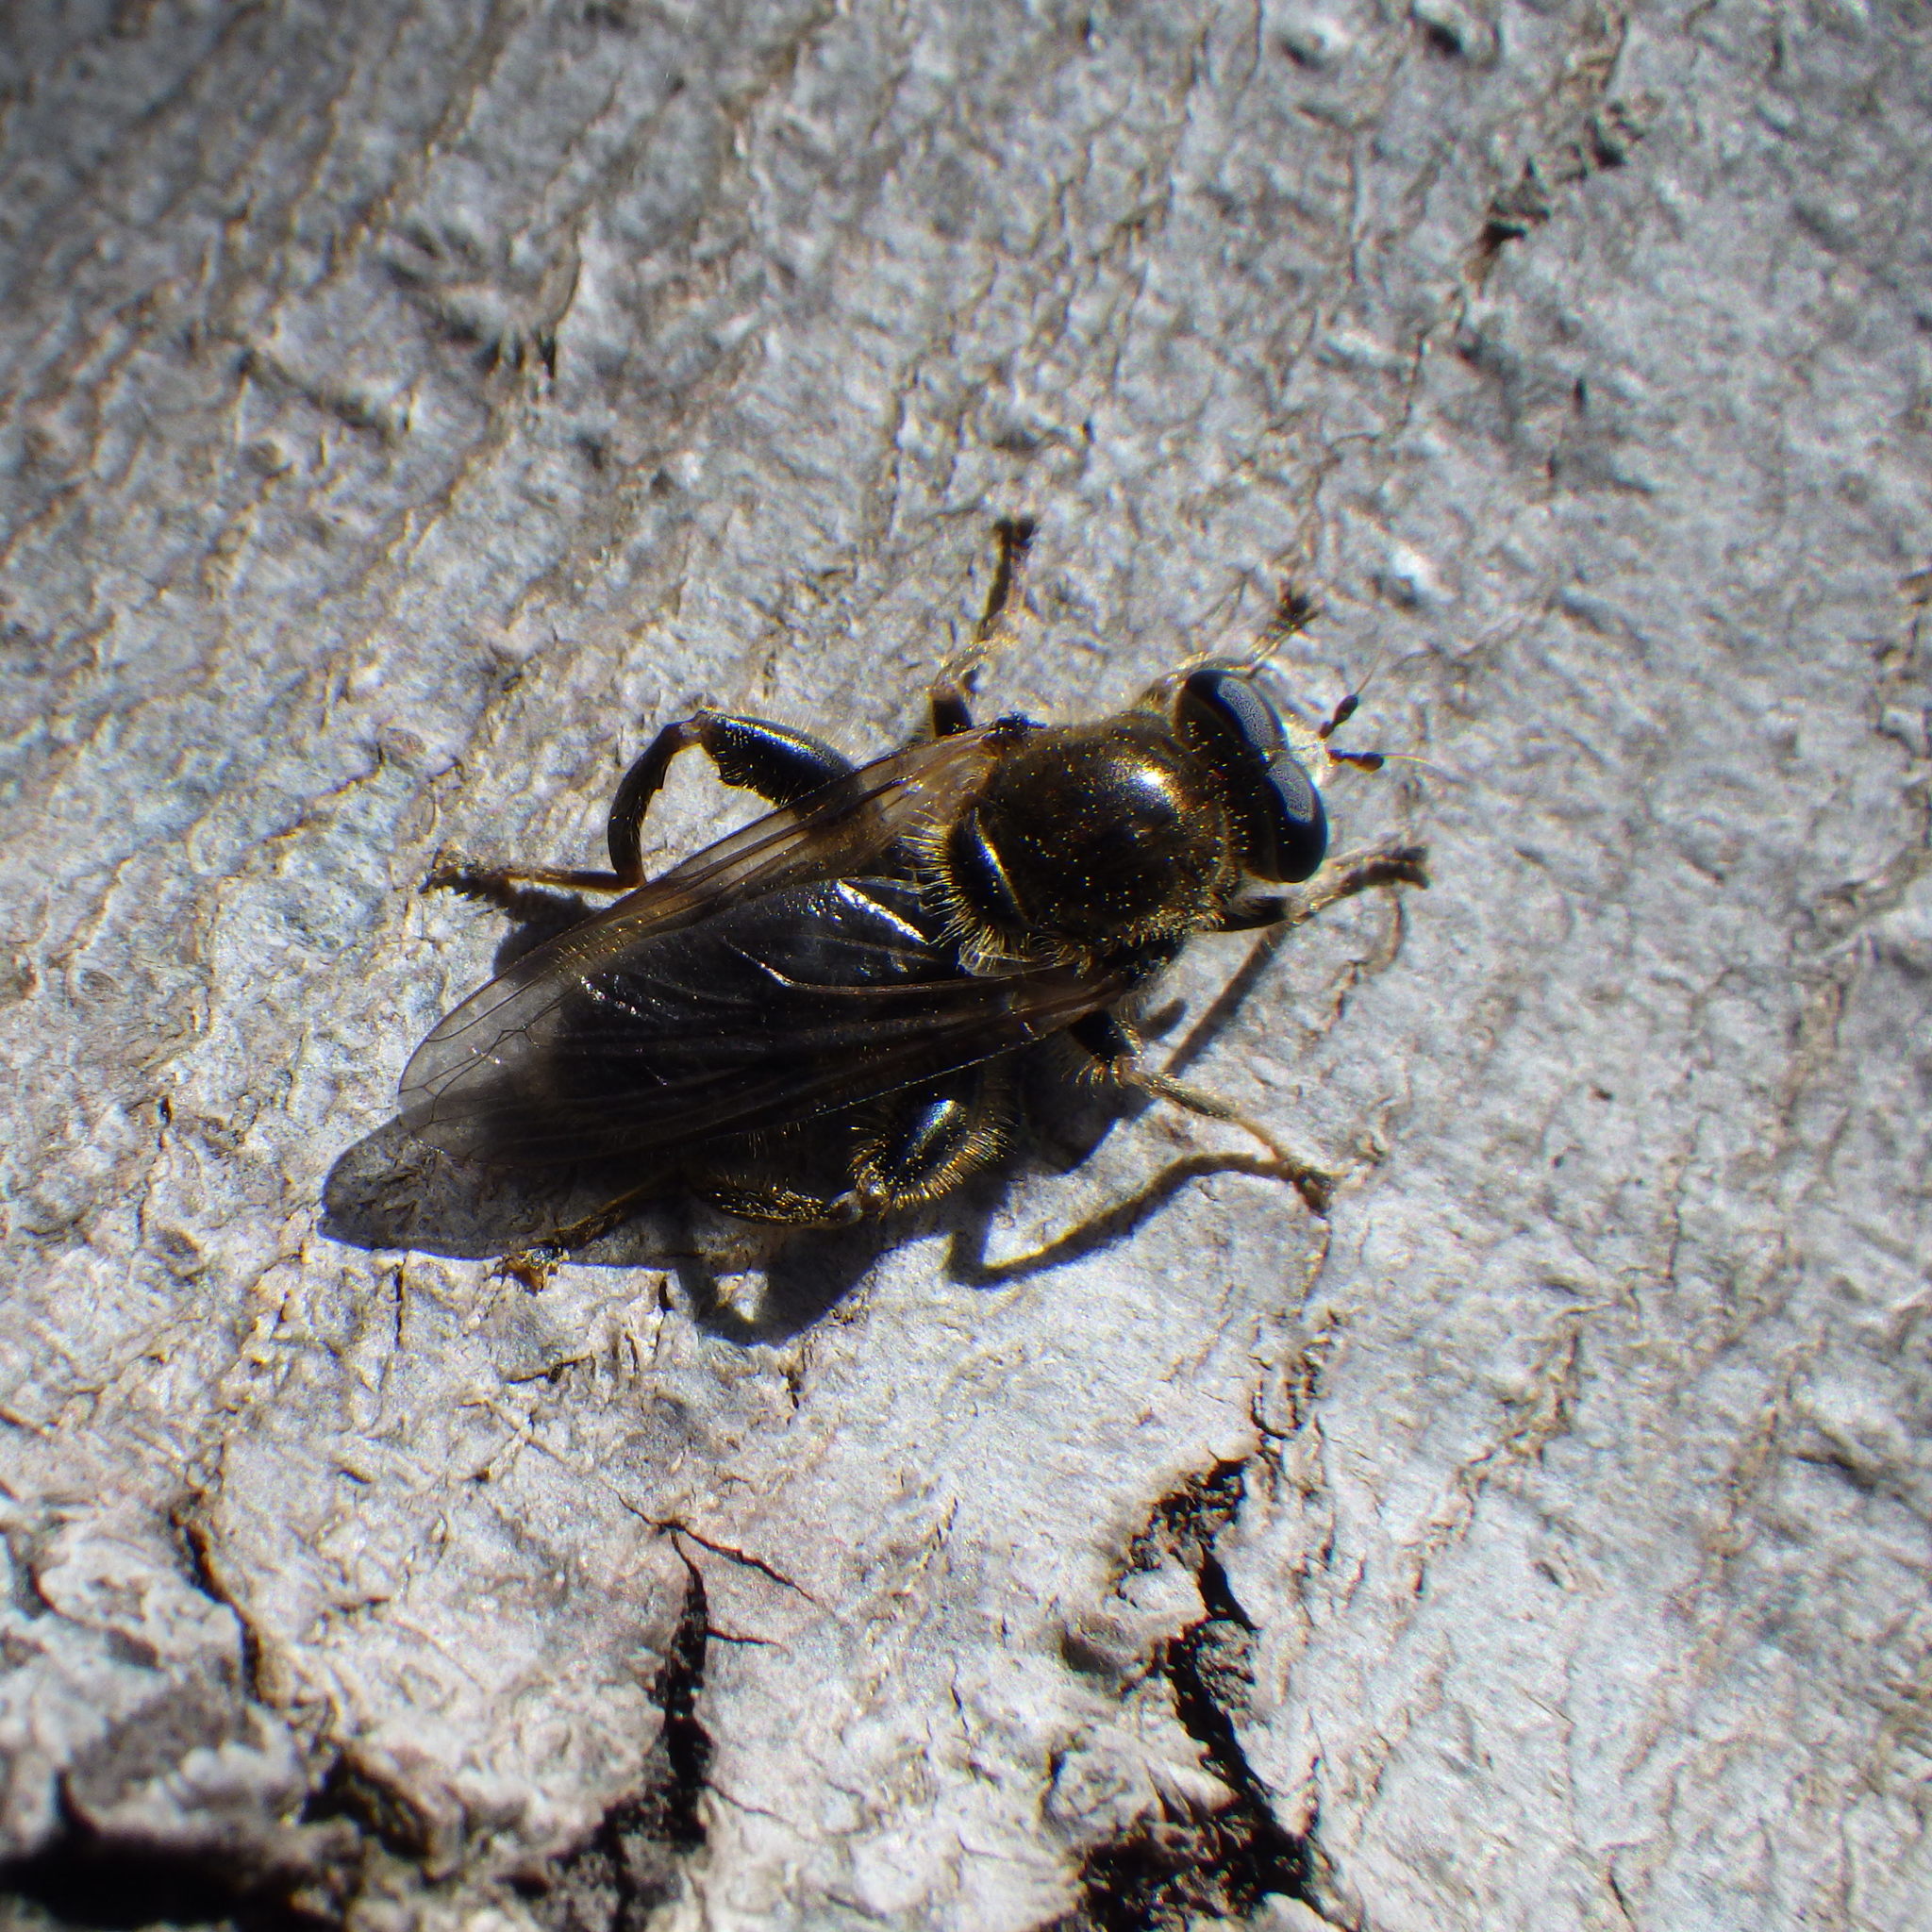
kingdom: Animalia
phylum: Arthropoda
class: Insecta
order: Diptera
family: Syrphidae
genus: Brachypalpus
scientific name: Brachypalpus oarus
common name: Eastern catkin fly
